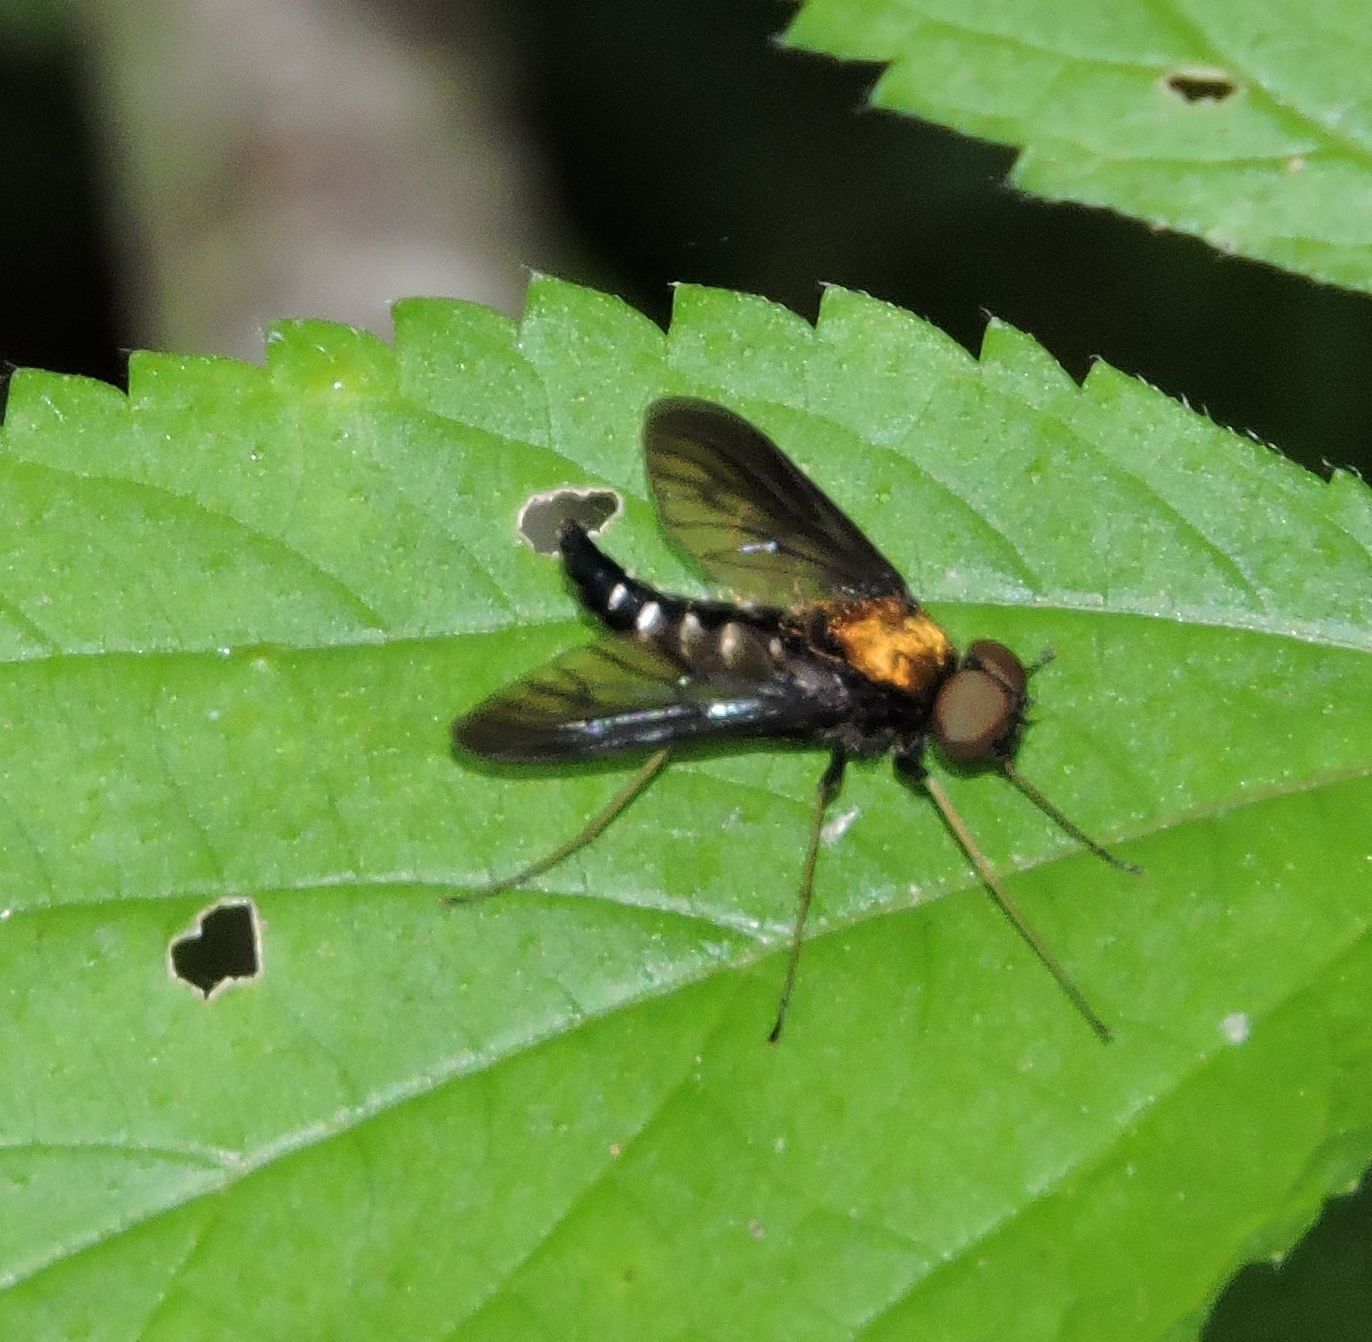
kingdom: Animalia
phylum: Arthropoda
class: Insecta
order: Diptera
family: Rhagionidae
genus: Chrysopilus
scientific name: Chrysopilus thoracicus
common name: Golden-backed snipe fly
